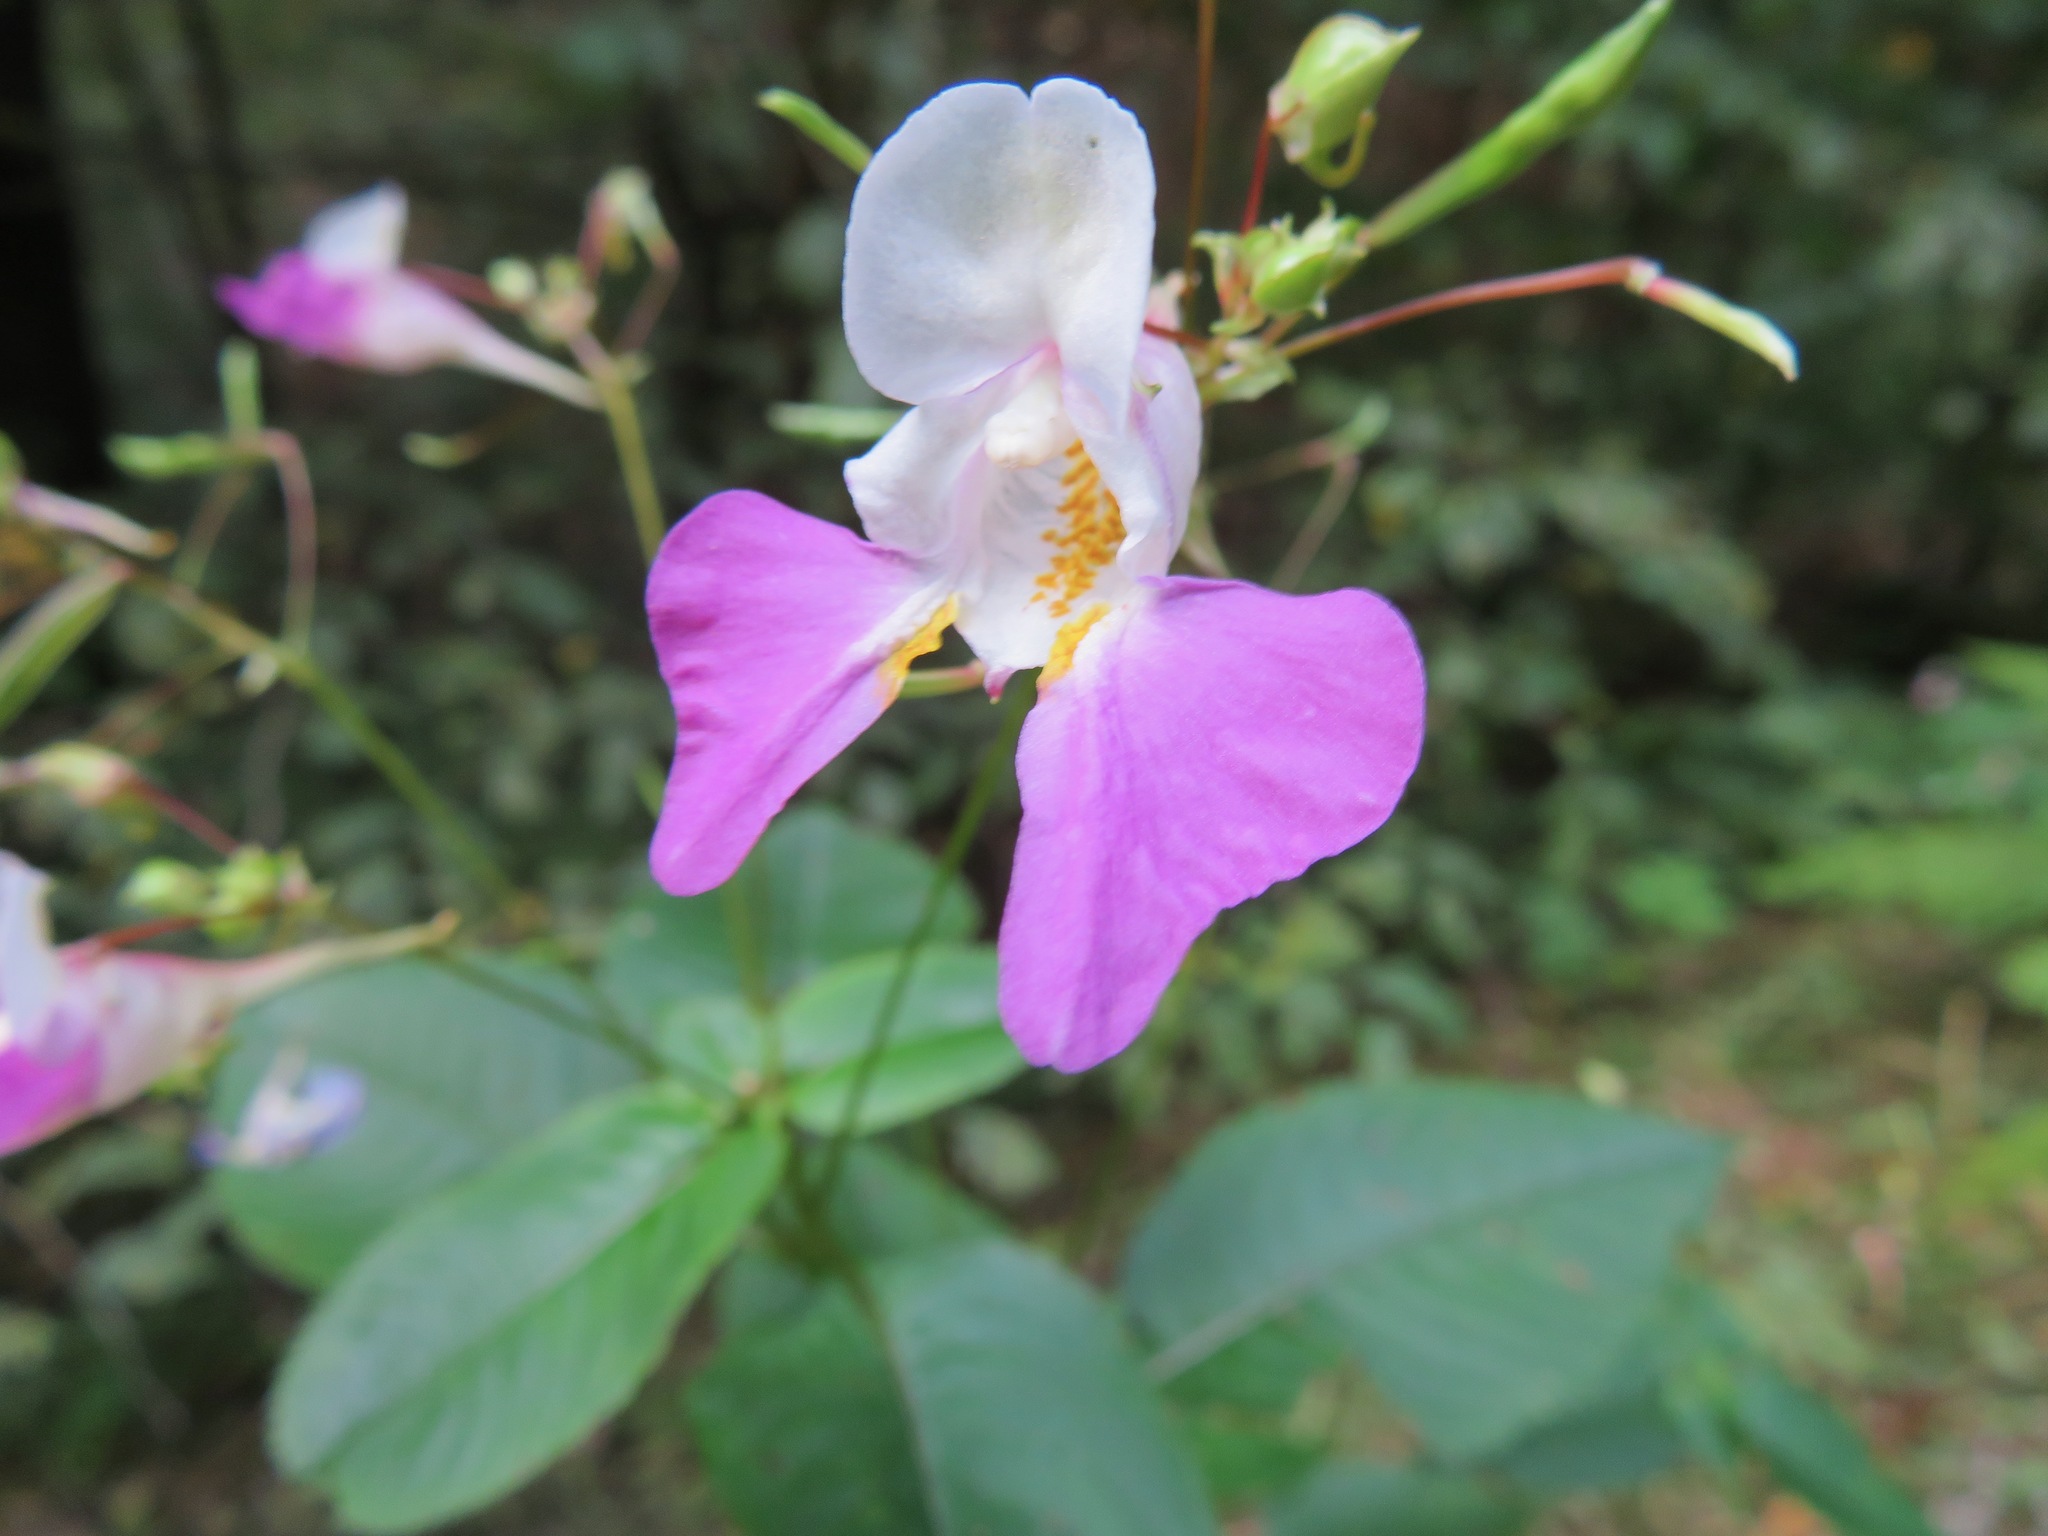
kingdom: Plantae
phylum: Tracheophyta
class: Magnoliopsida
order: Ericales
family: Balsaminaceae
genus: Impatiens
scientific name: Impatiens balfourii
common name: Balfour's touch-me-not
